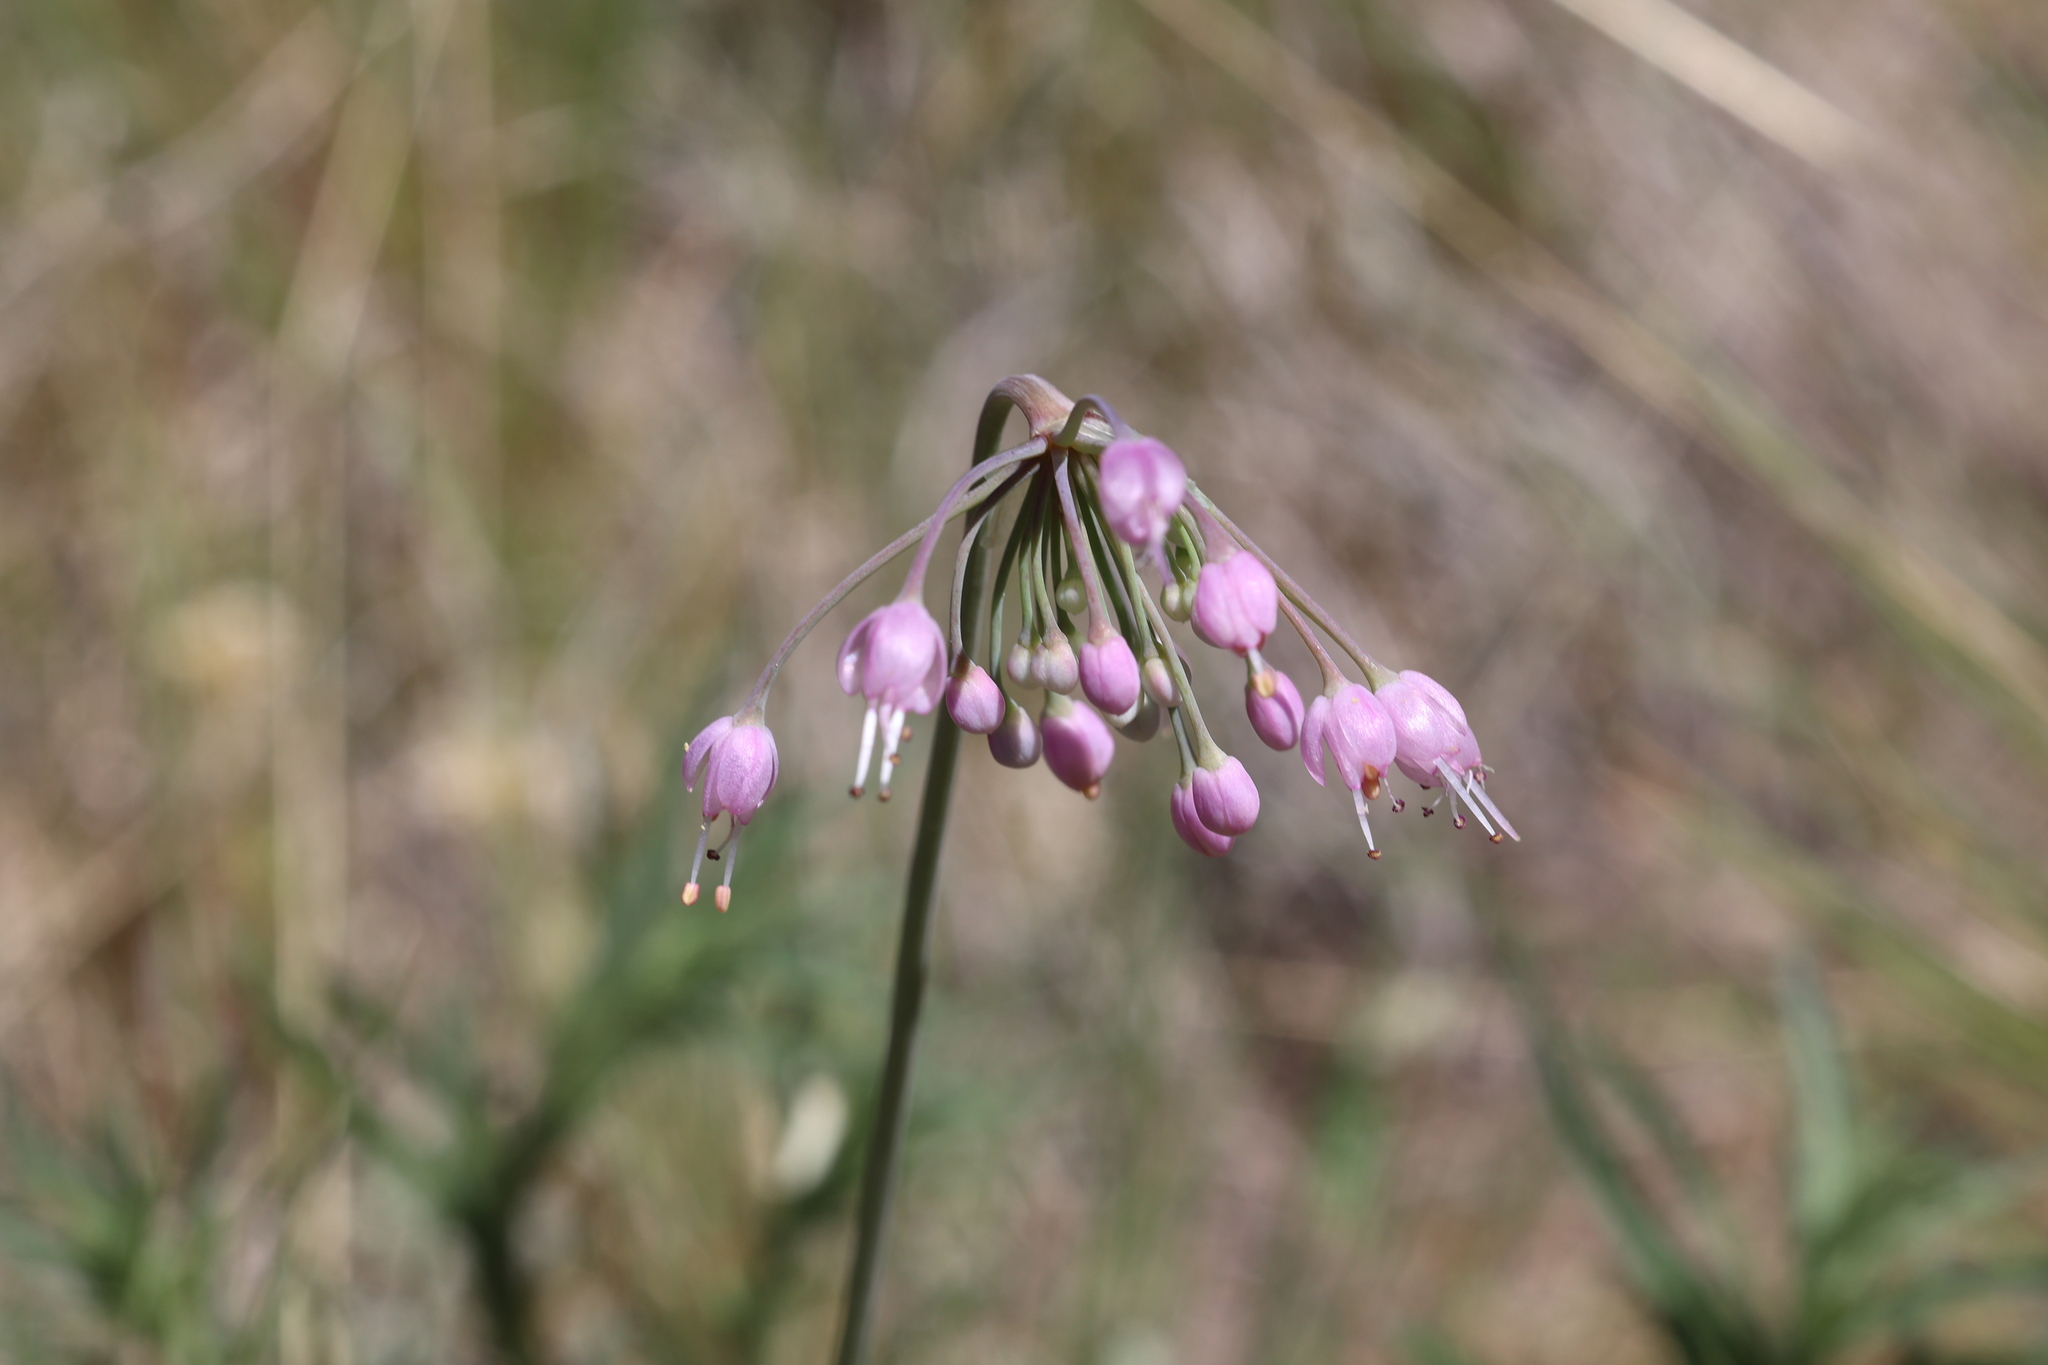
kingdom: Plantae
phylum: Tracheophyta
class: Liliopsida
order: Asparagales
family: Amaryllidaceae
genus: Allium
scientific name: Allium cernuum
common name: Nodding onion
